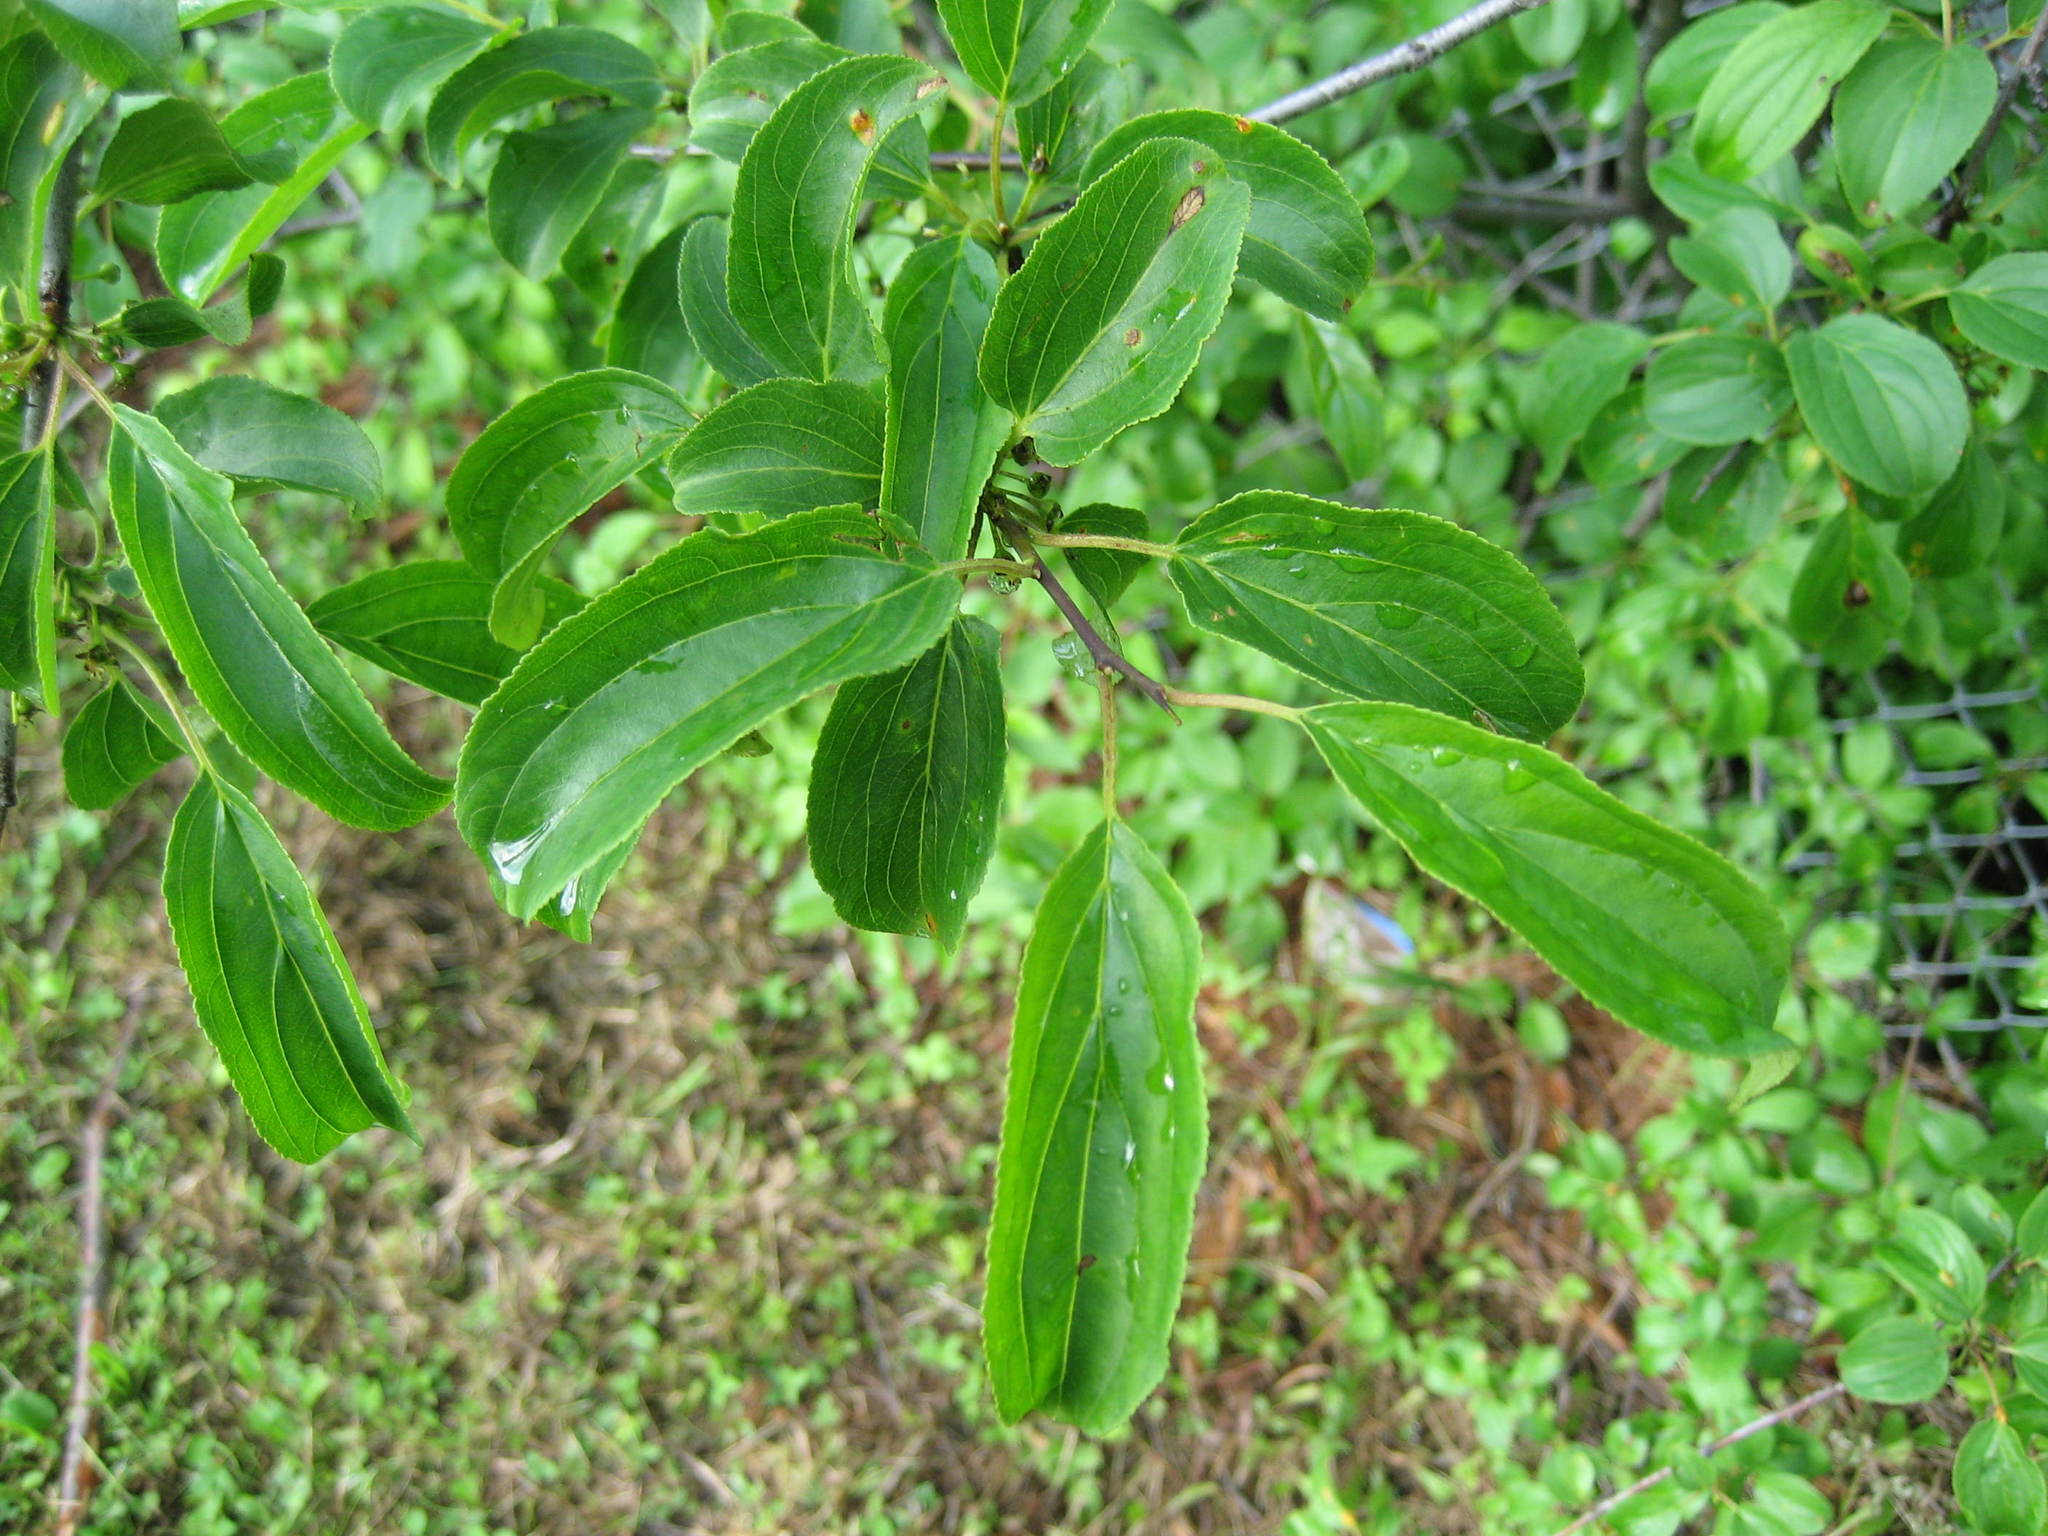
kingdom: Plantae
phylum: Tracheophyta
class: Magnoliopsida
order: Rosales
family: Rhamnaceae
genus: Rhamnus
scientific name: Rhamnus cathartica
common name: Common buckthorn
